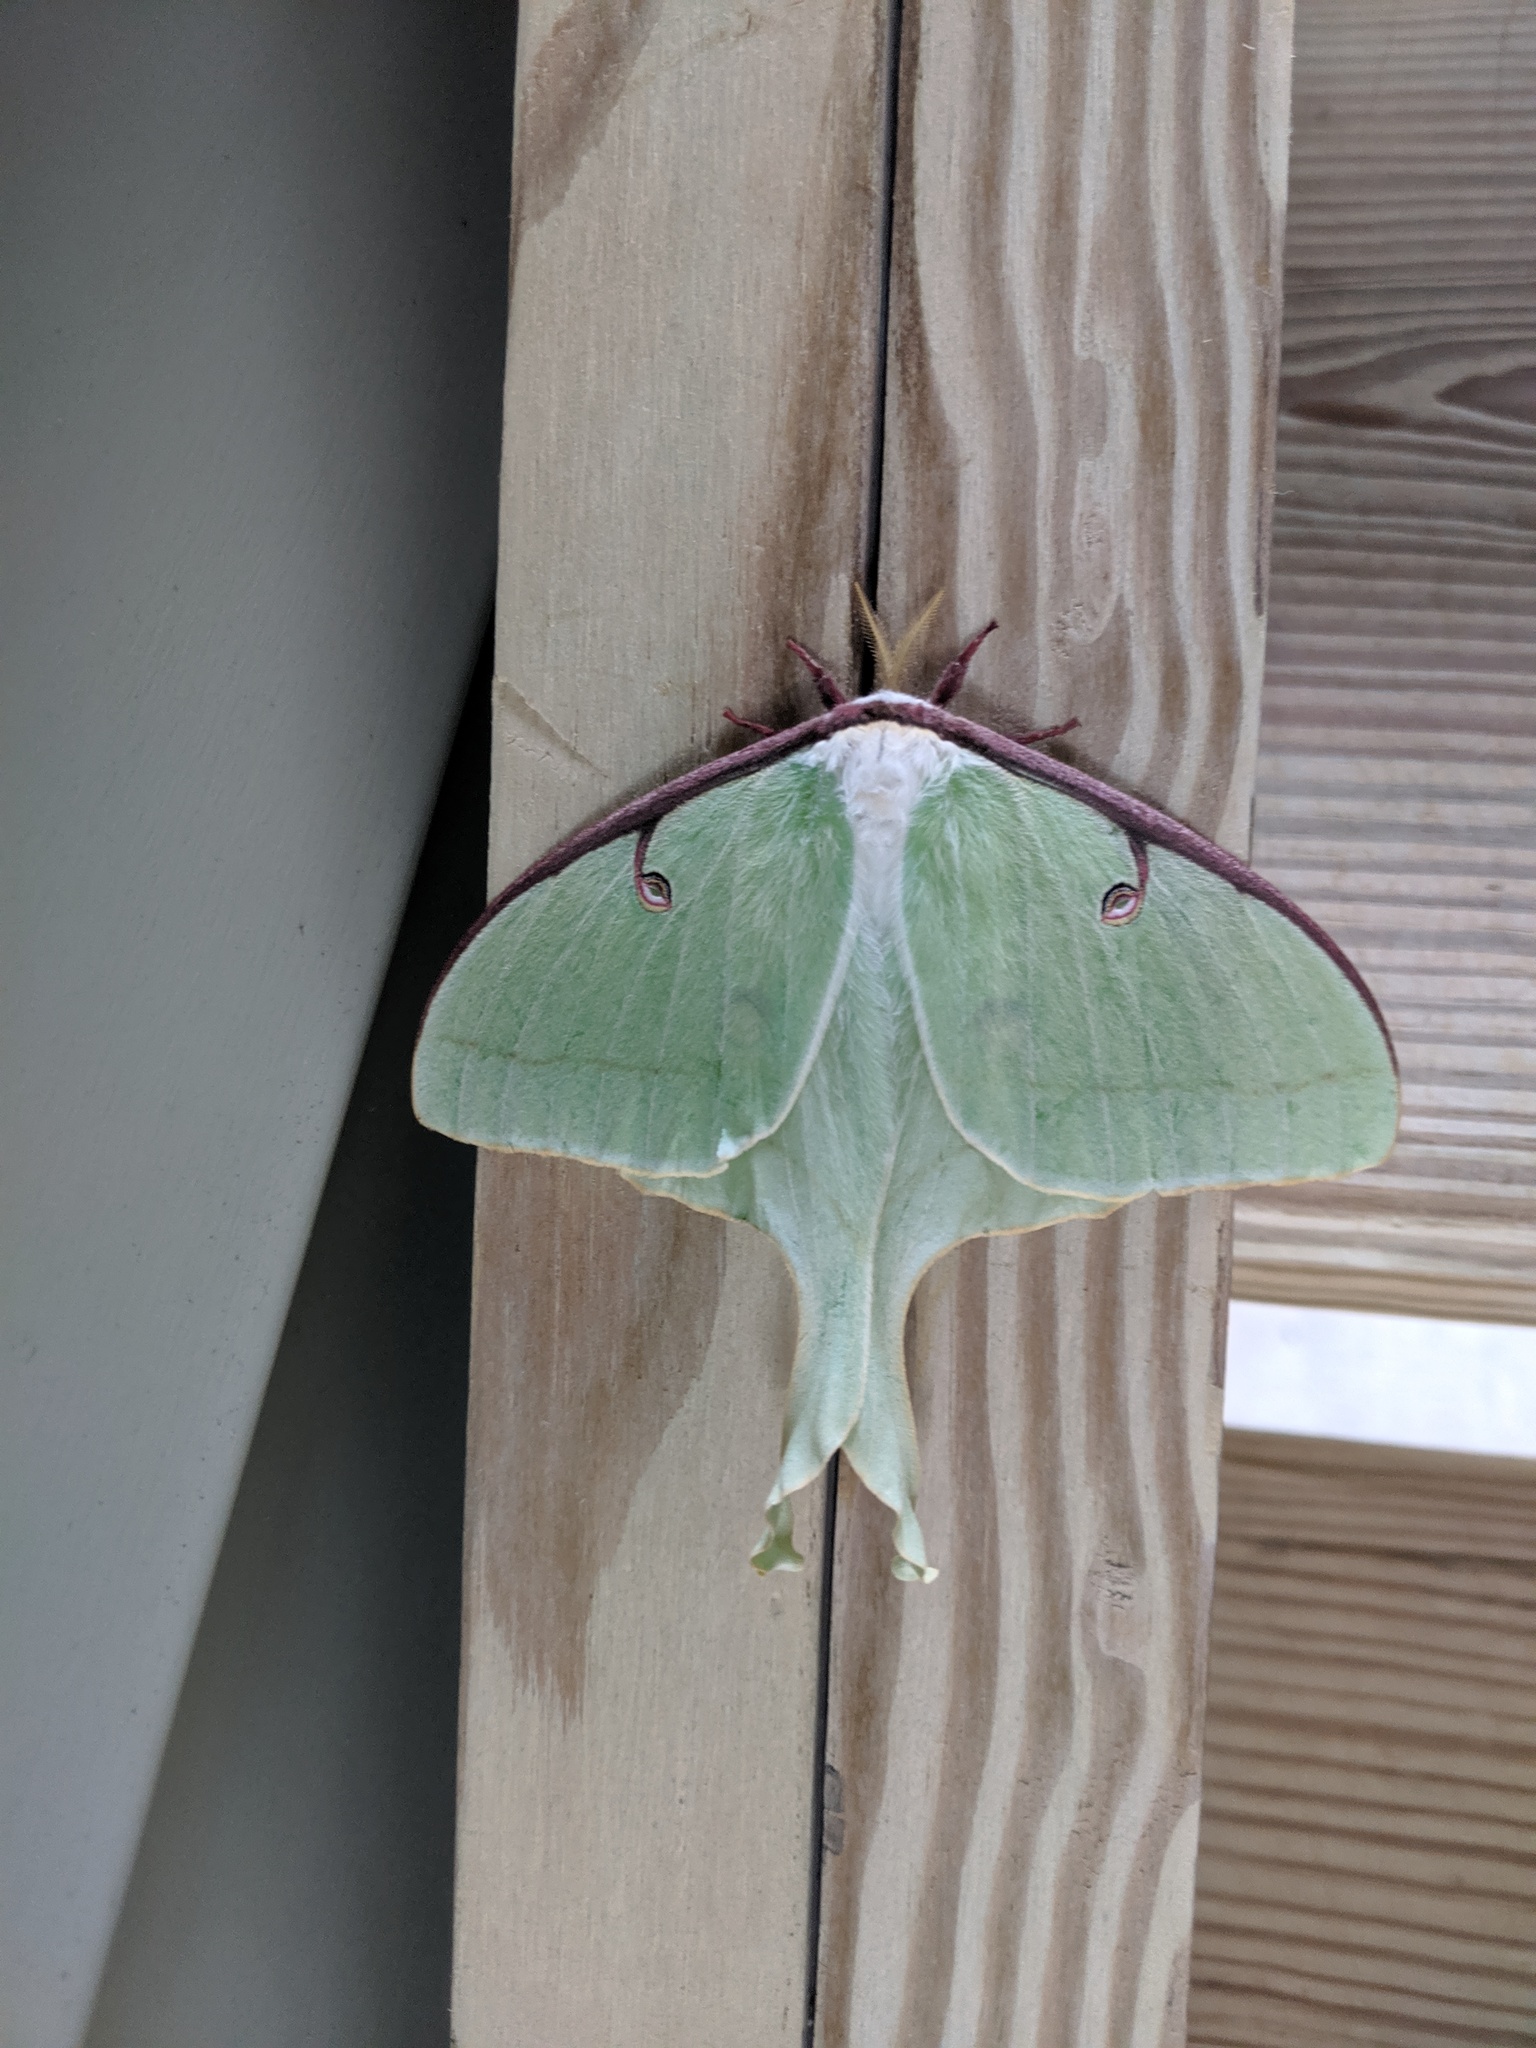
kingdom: Animalia
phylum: Arthropoda
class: Insecta
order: Lepidoptera
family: Saturniidae
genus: Actias
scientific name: Actias luna
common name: Luna moth
